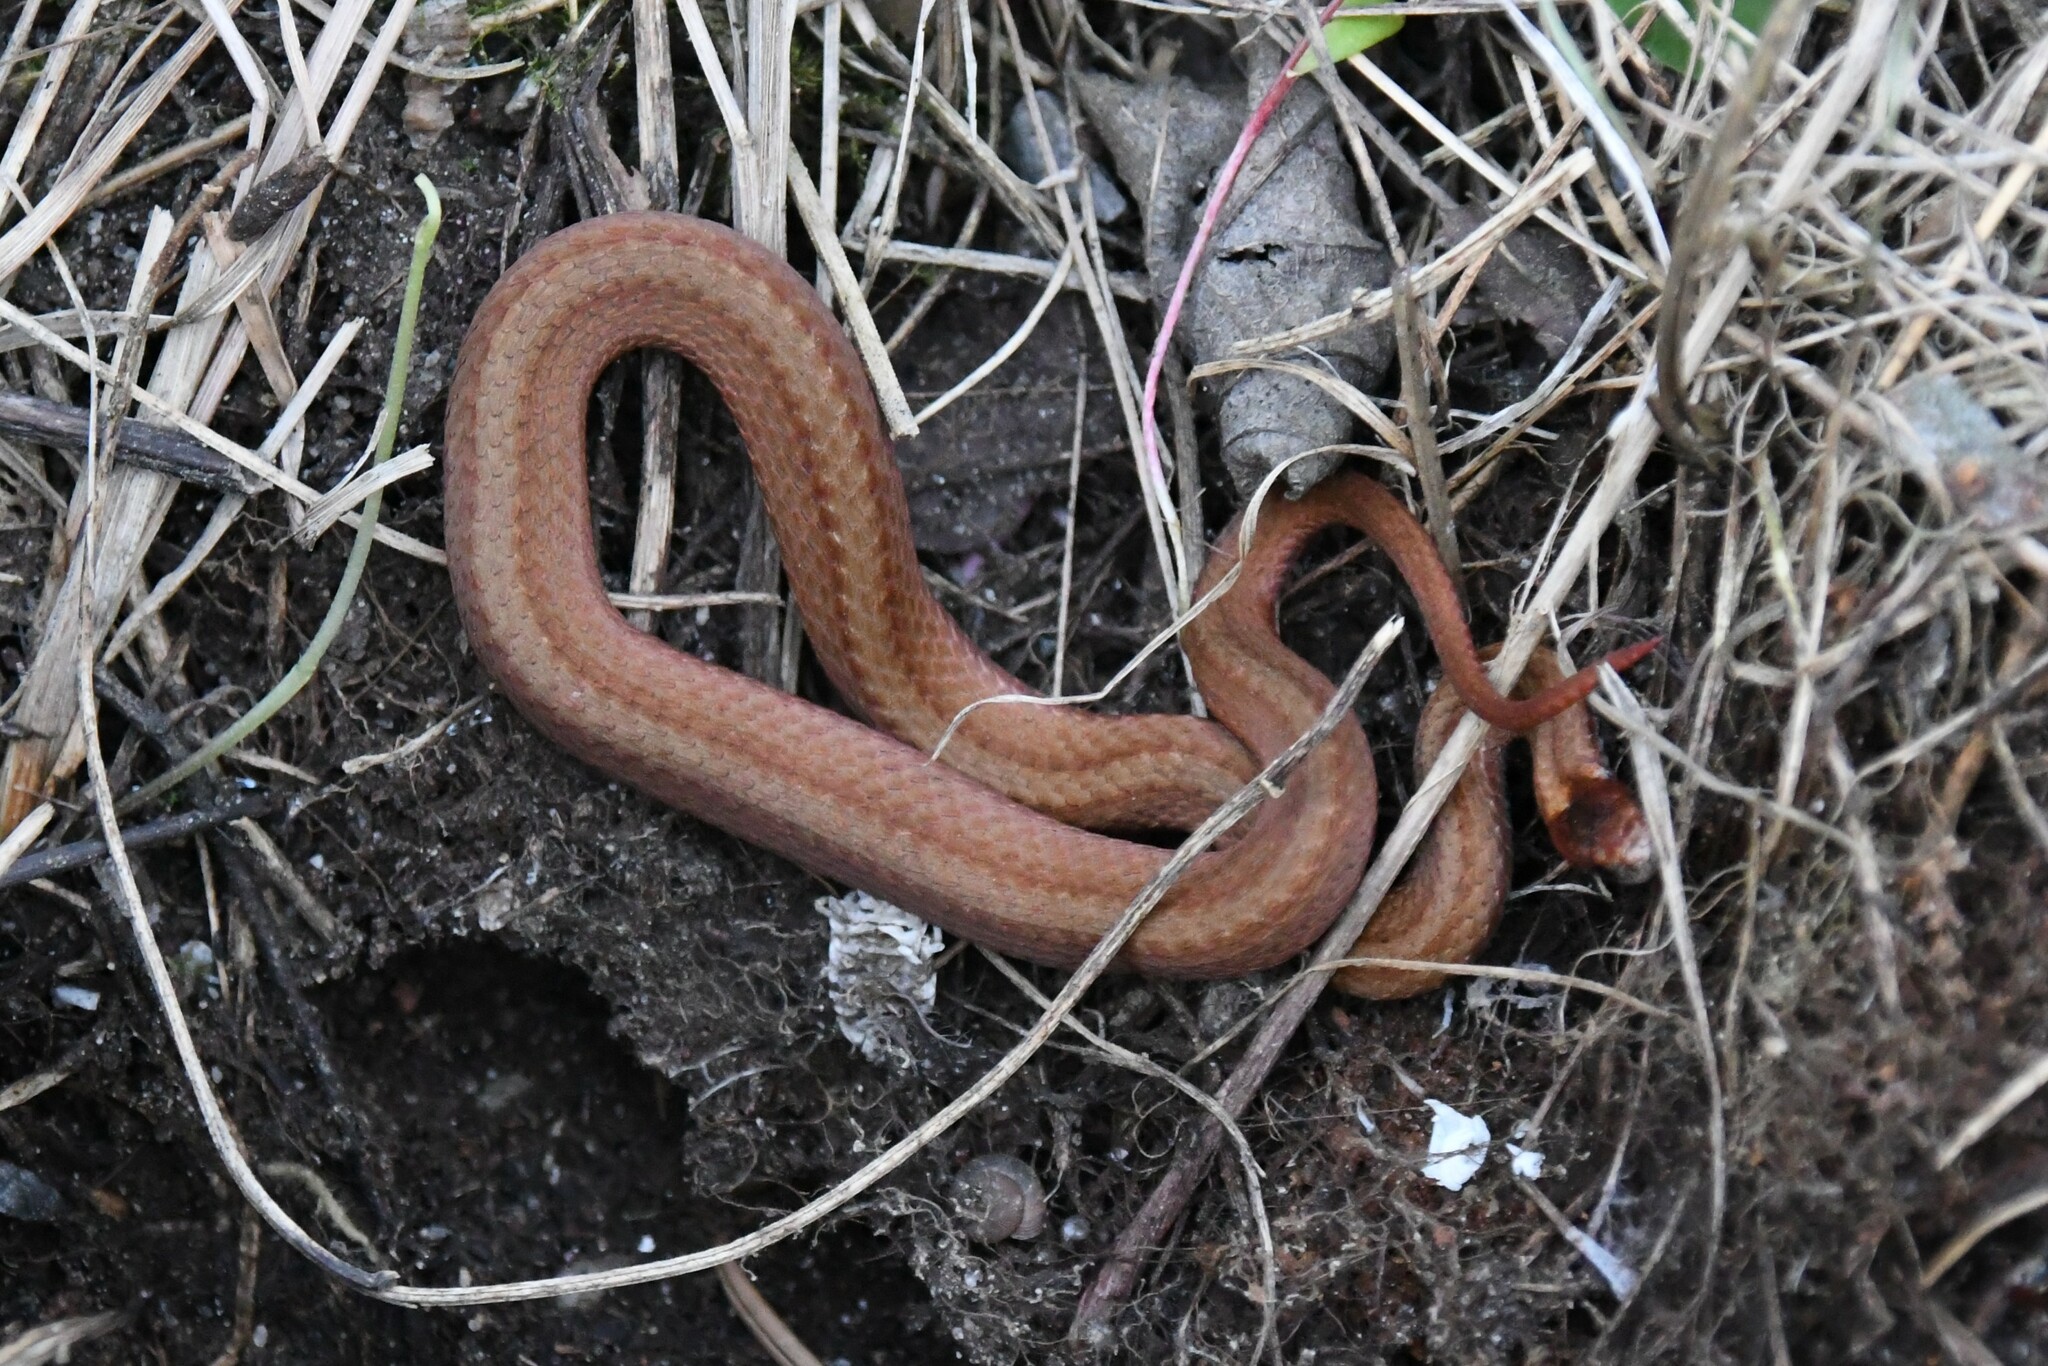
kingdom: Animalia
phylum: Chordata
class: Squamata
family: Colubridae
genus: Storeria
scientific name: Storeria occipitomaculata
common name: Redbelly snake
